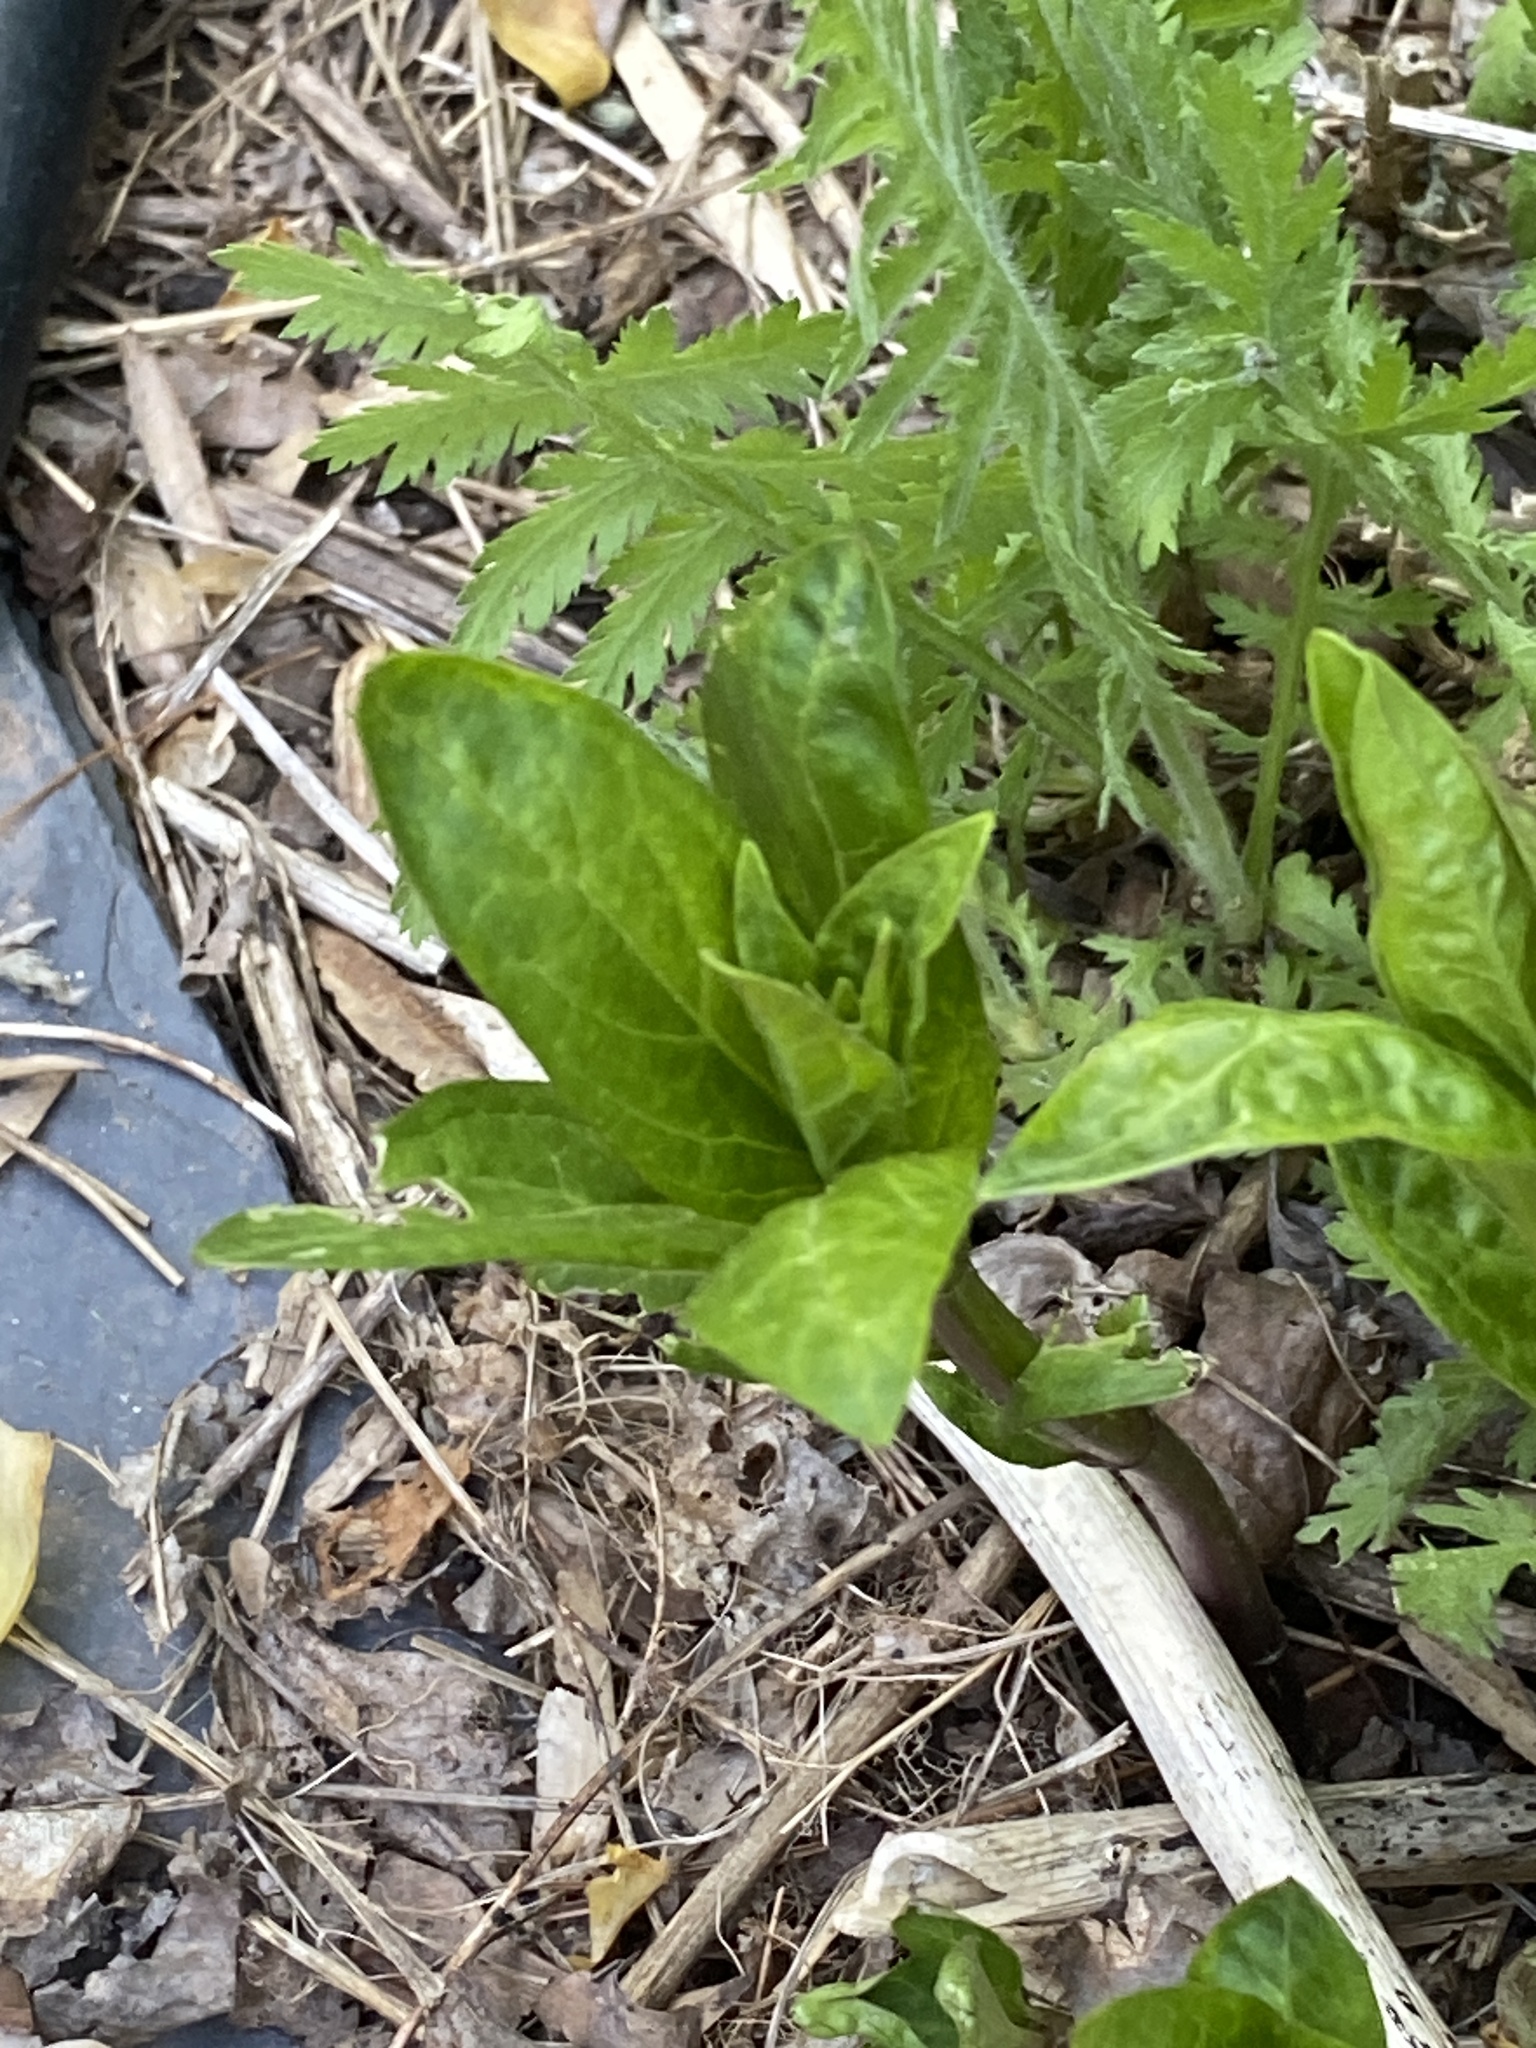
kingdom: Plantae
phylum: Tracheophyta
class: Magnoliopsida
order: Caryophyllales
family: Phytolaccaceae
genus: Phytolacca
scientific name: Phytolacca americana
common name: American pokeweed
